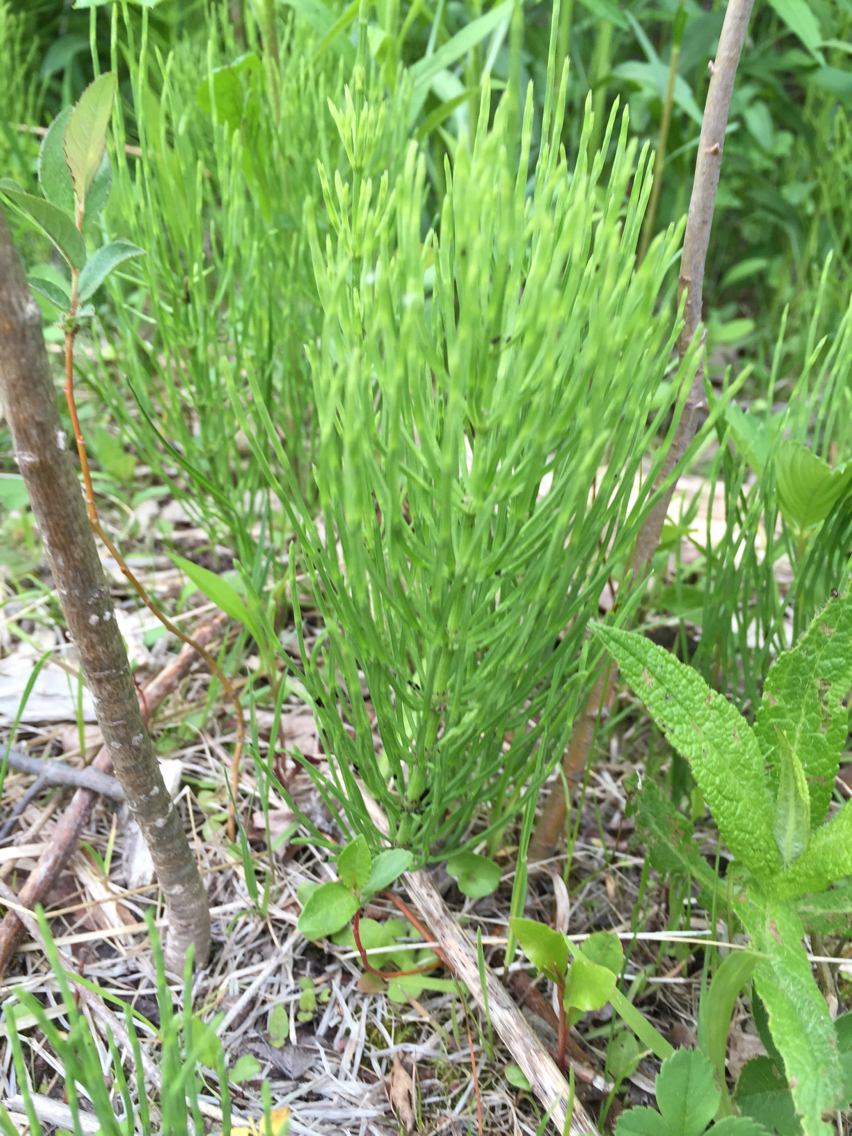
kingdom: Plantae
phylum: Tracheophyta
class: Polypodiopsida
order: Equisetales
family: Equisetaceae
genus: Equisetum
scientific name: Equisetum arvense
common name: Field horsetail
